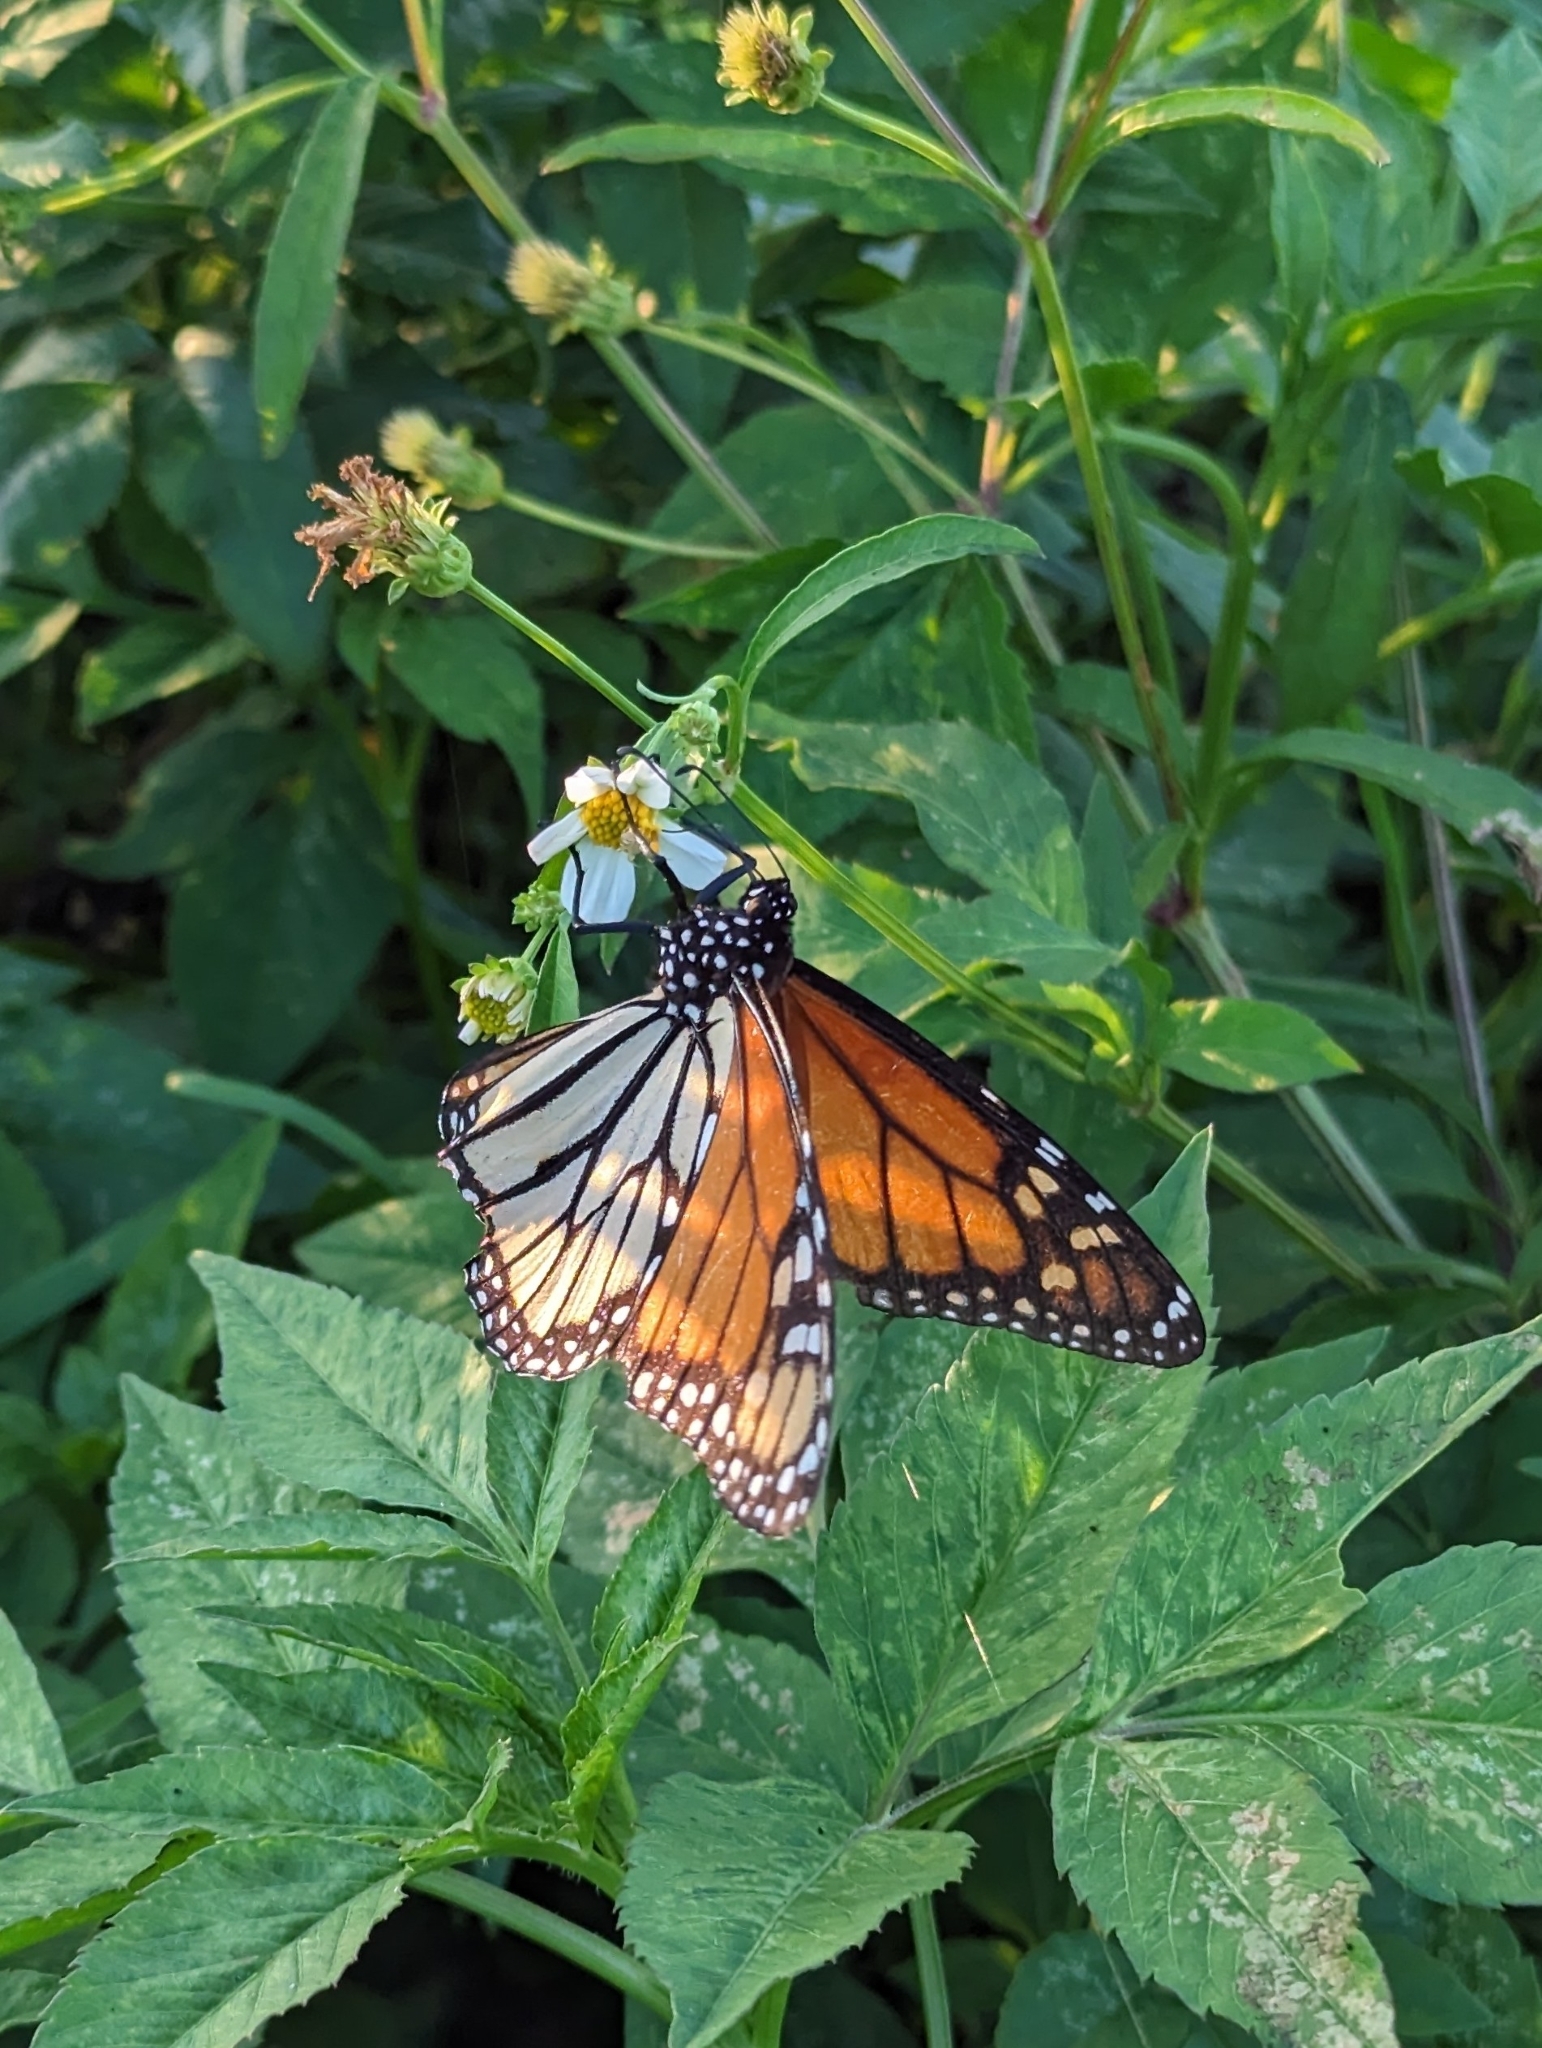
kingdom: Animalia
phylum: Arthropoda
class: Insecta
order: Lepidoptera
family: Nymphalidae
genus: Danaus
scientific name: Danaus plexippus
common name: Monarch
